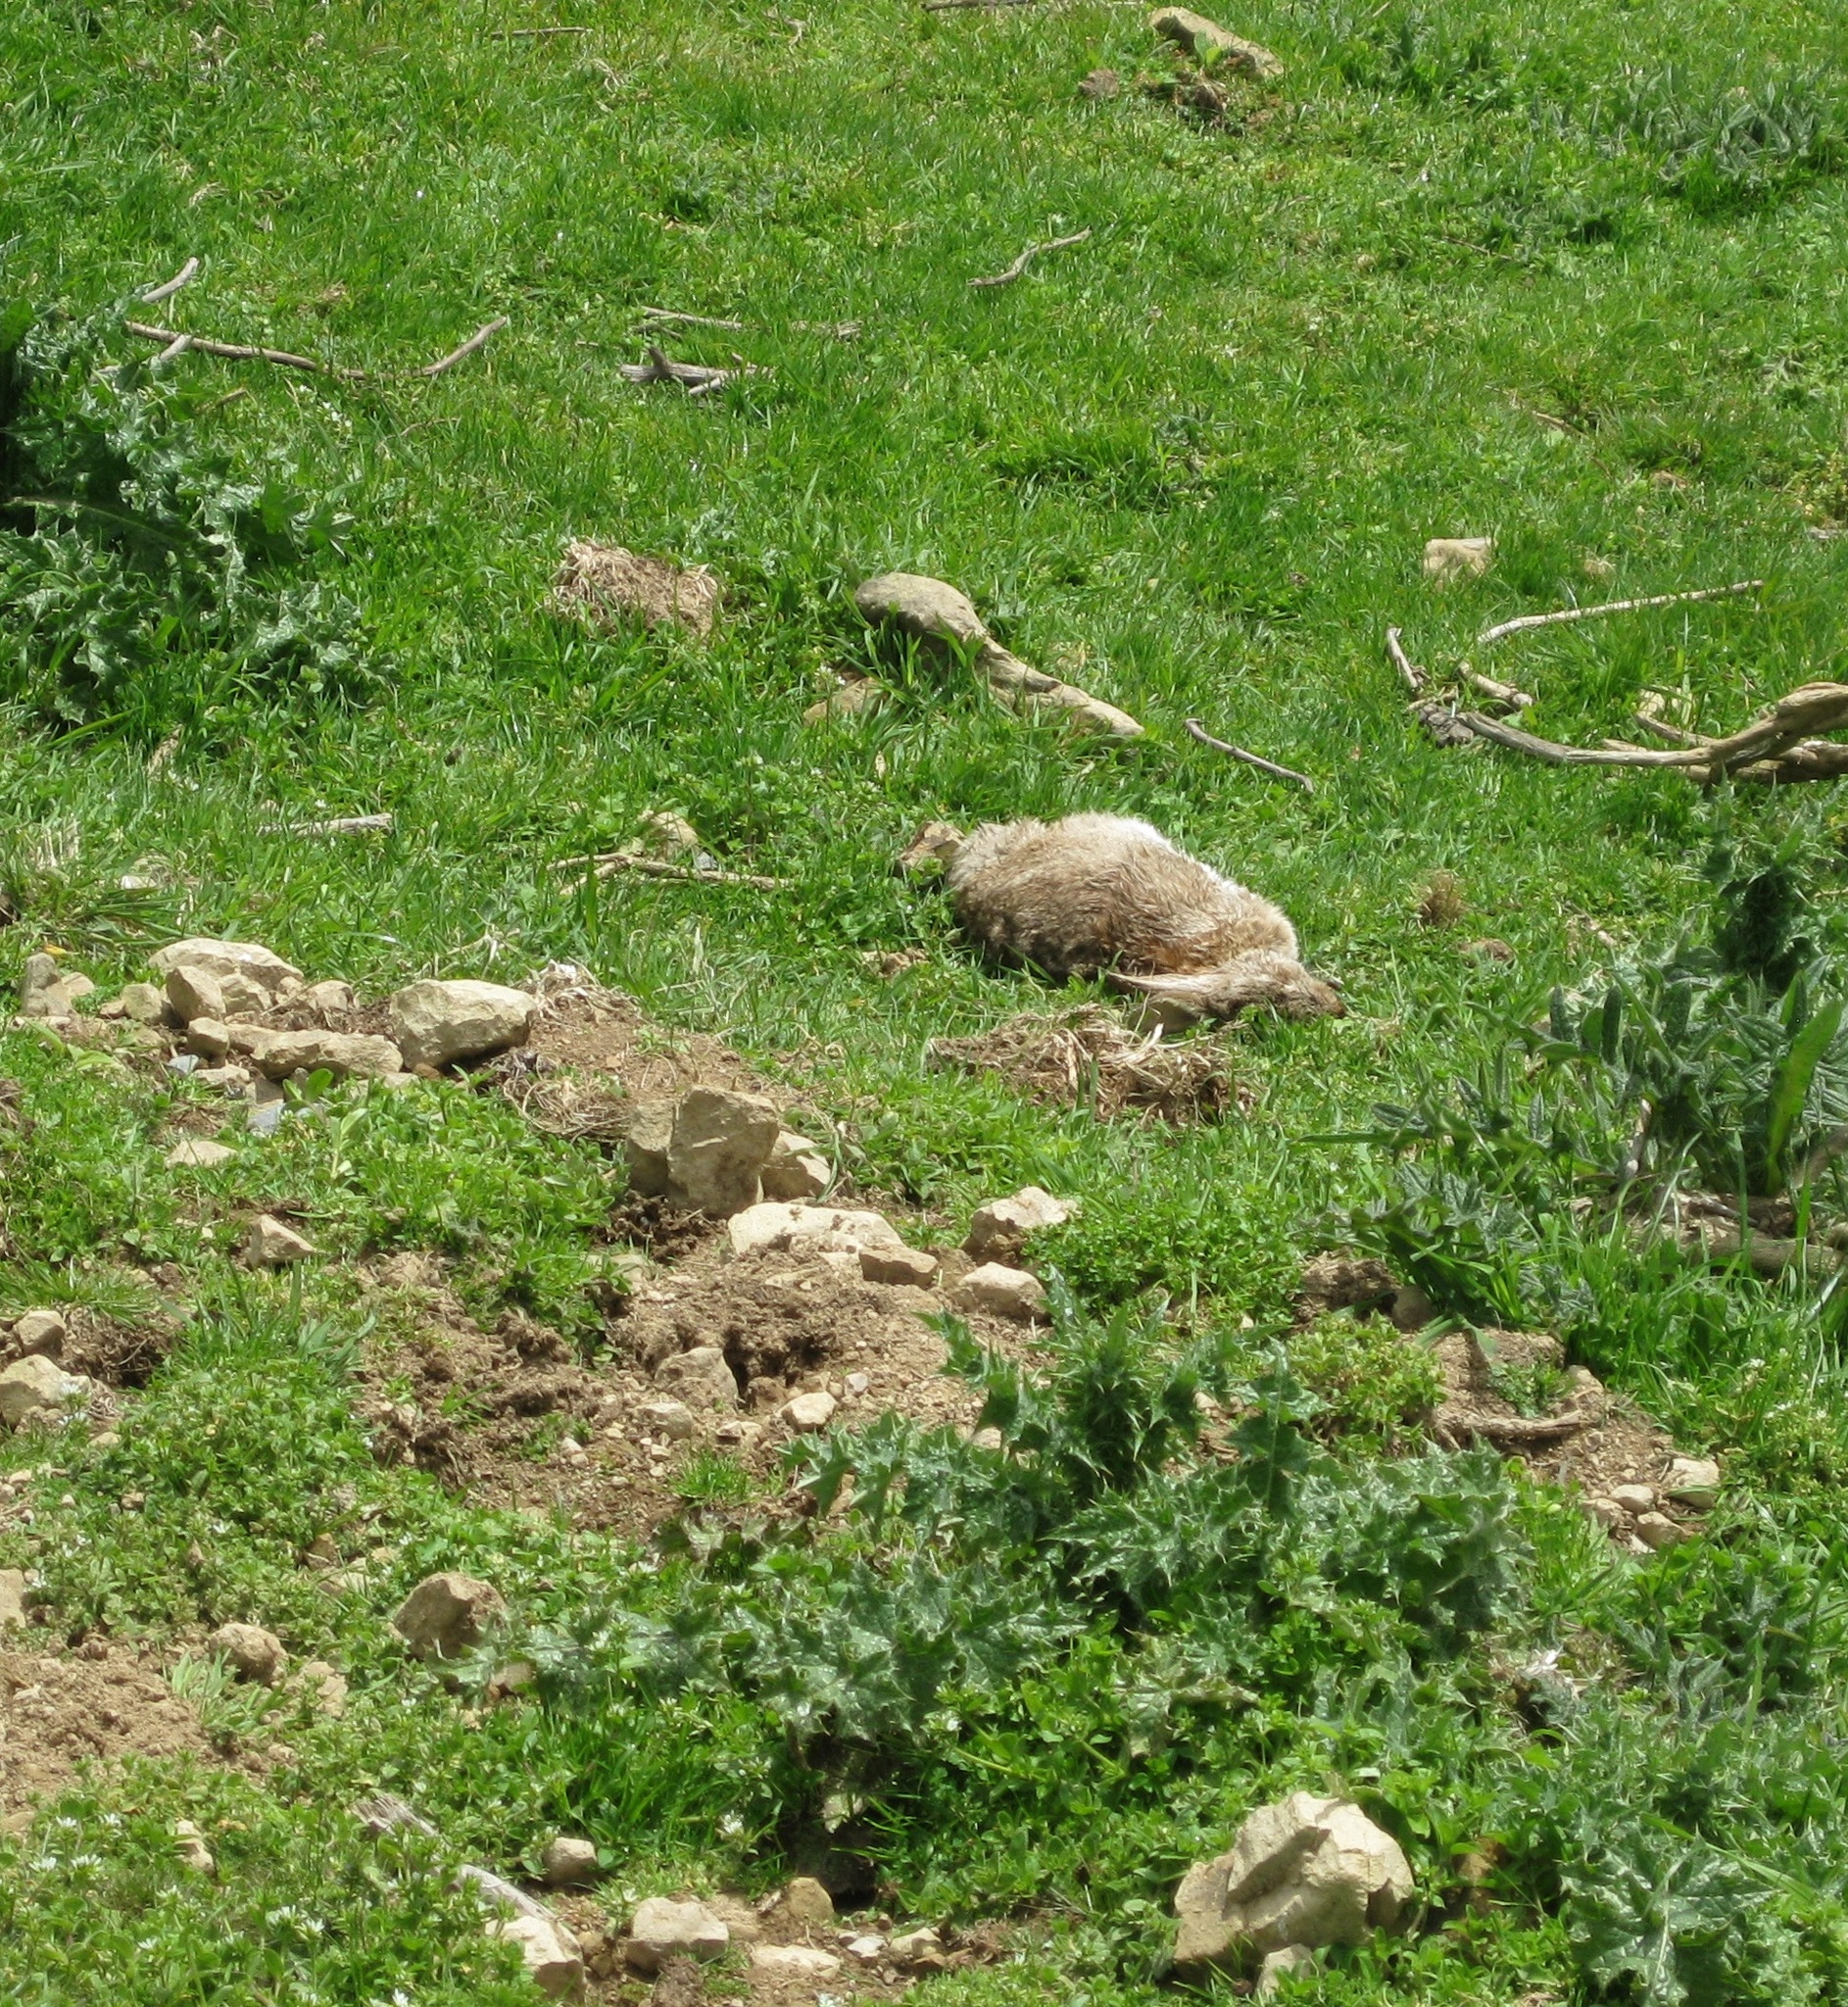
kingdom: Animalia
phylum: Chordata
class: Mammalia
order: Lagomorpha
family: Leporidae
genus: Oryctolagus
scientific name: Oryctolagus cuniculus
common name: European rabbit
